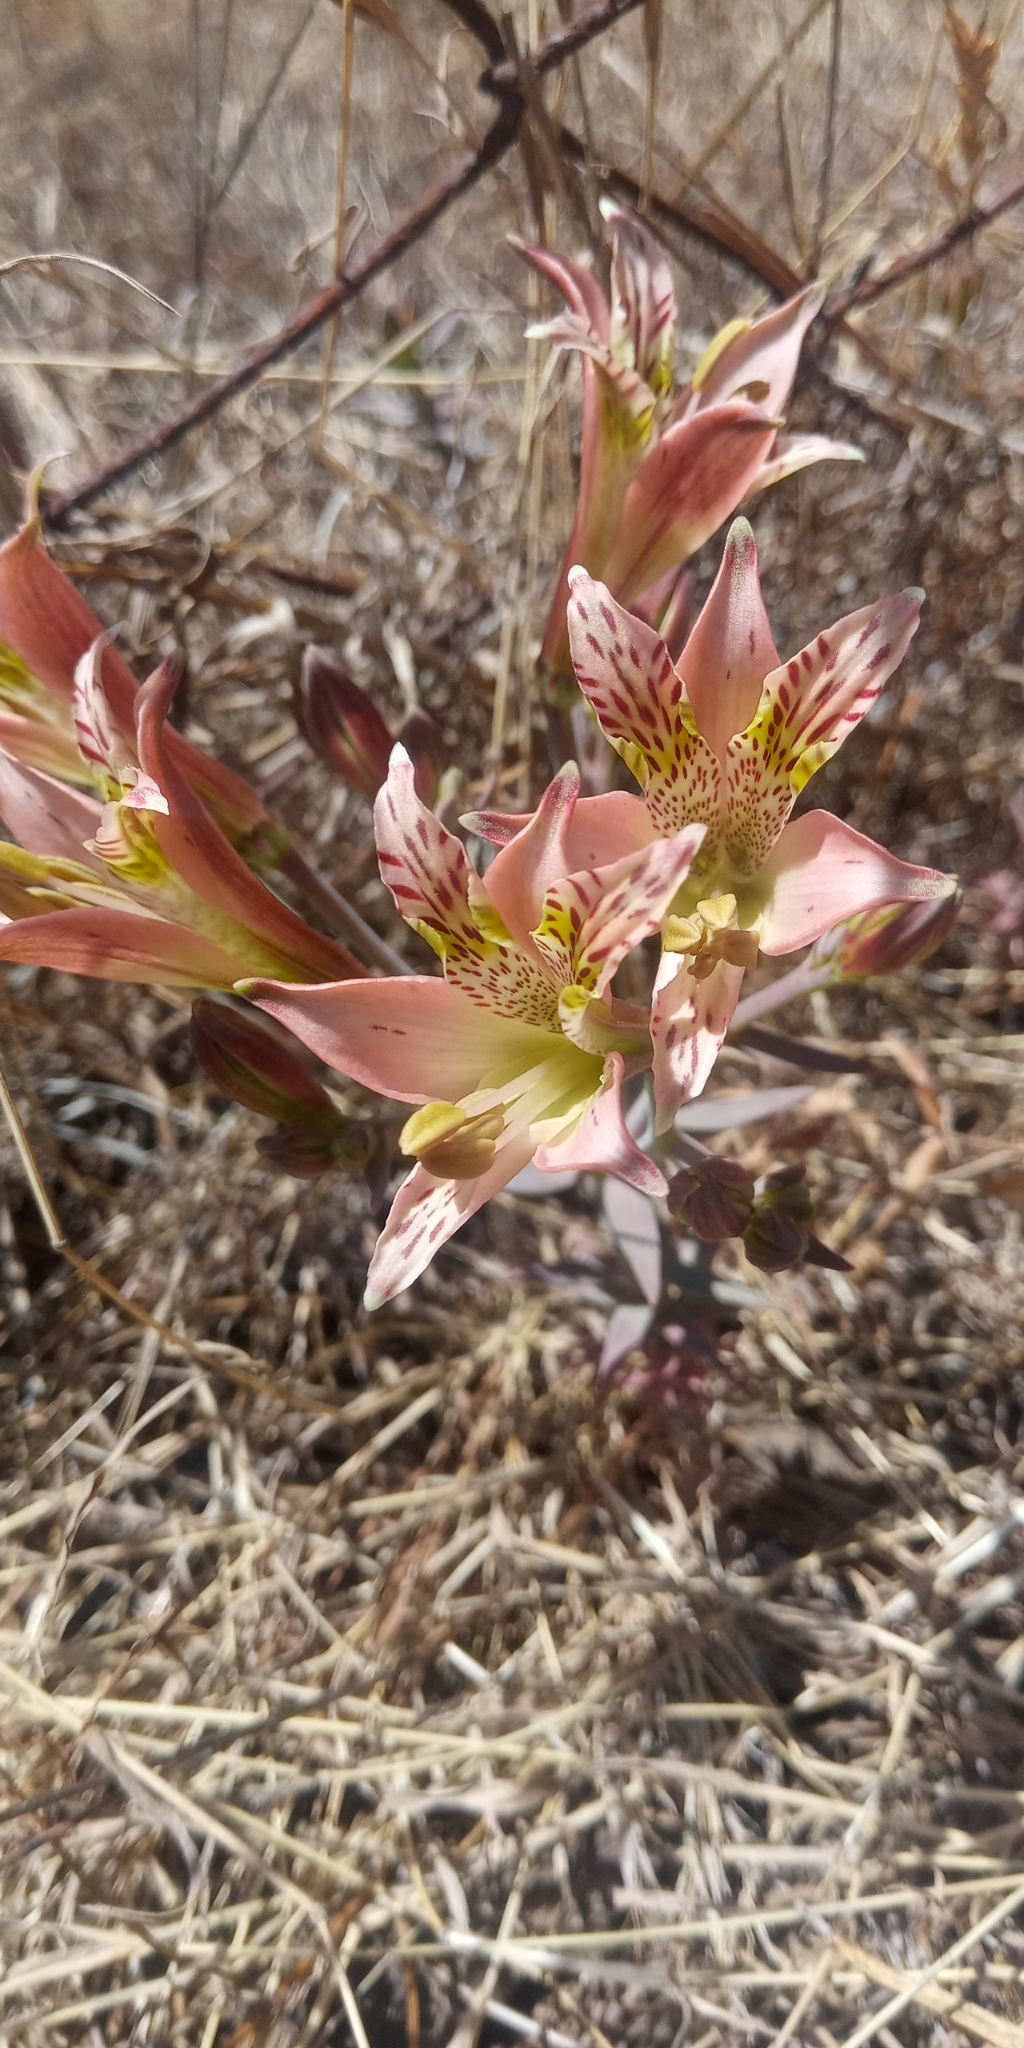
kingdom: Plantae
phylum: Tracheophyta
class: Liliopsida
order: Liliales
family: Alstroemeriaceae
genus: Alstroemeria
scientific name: Alstroemeria marticorenae
